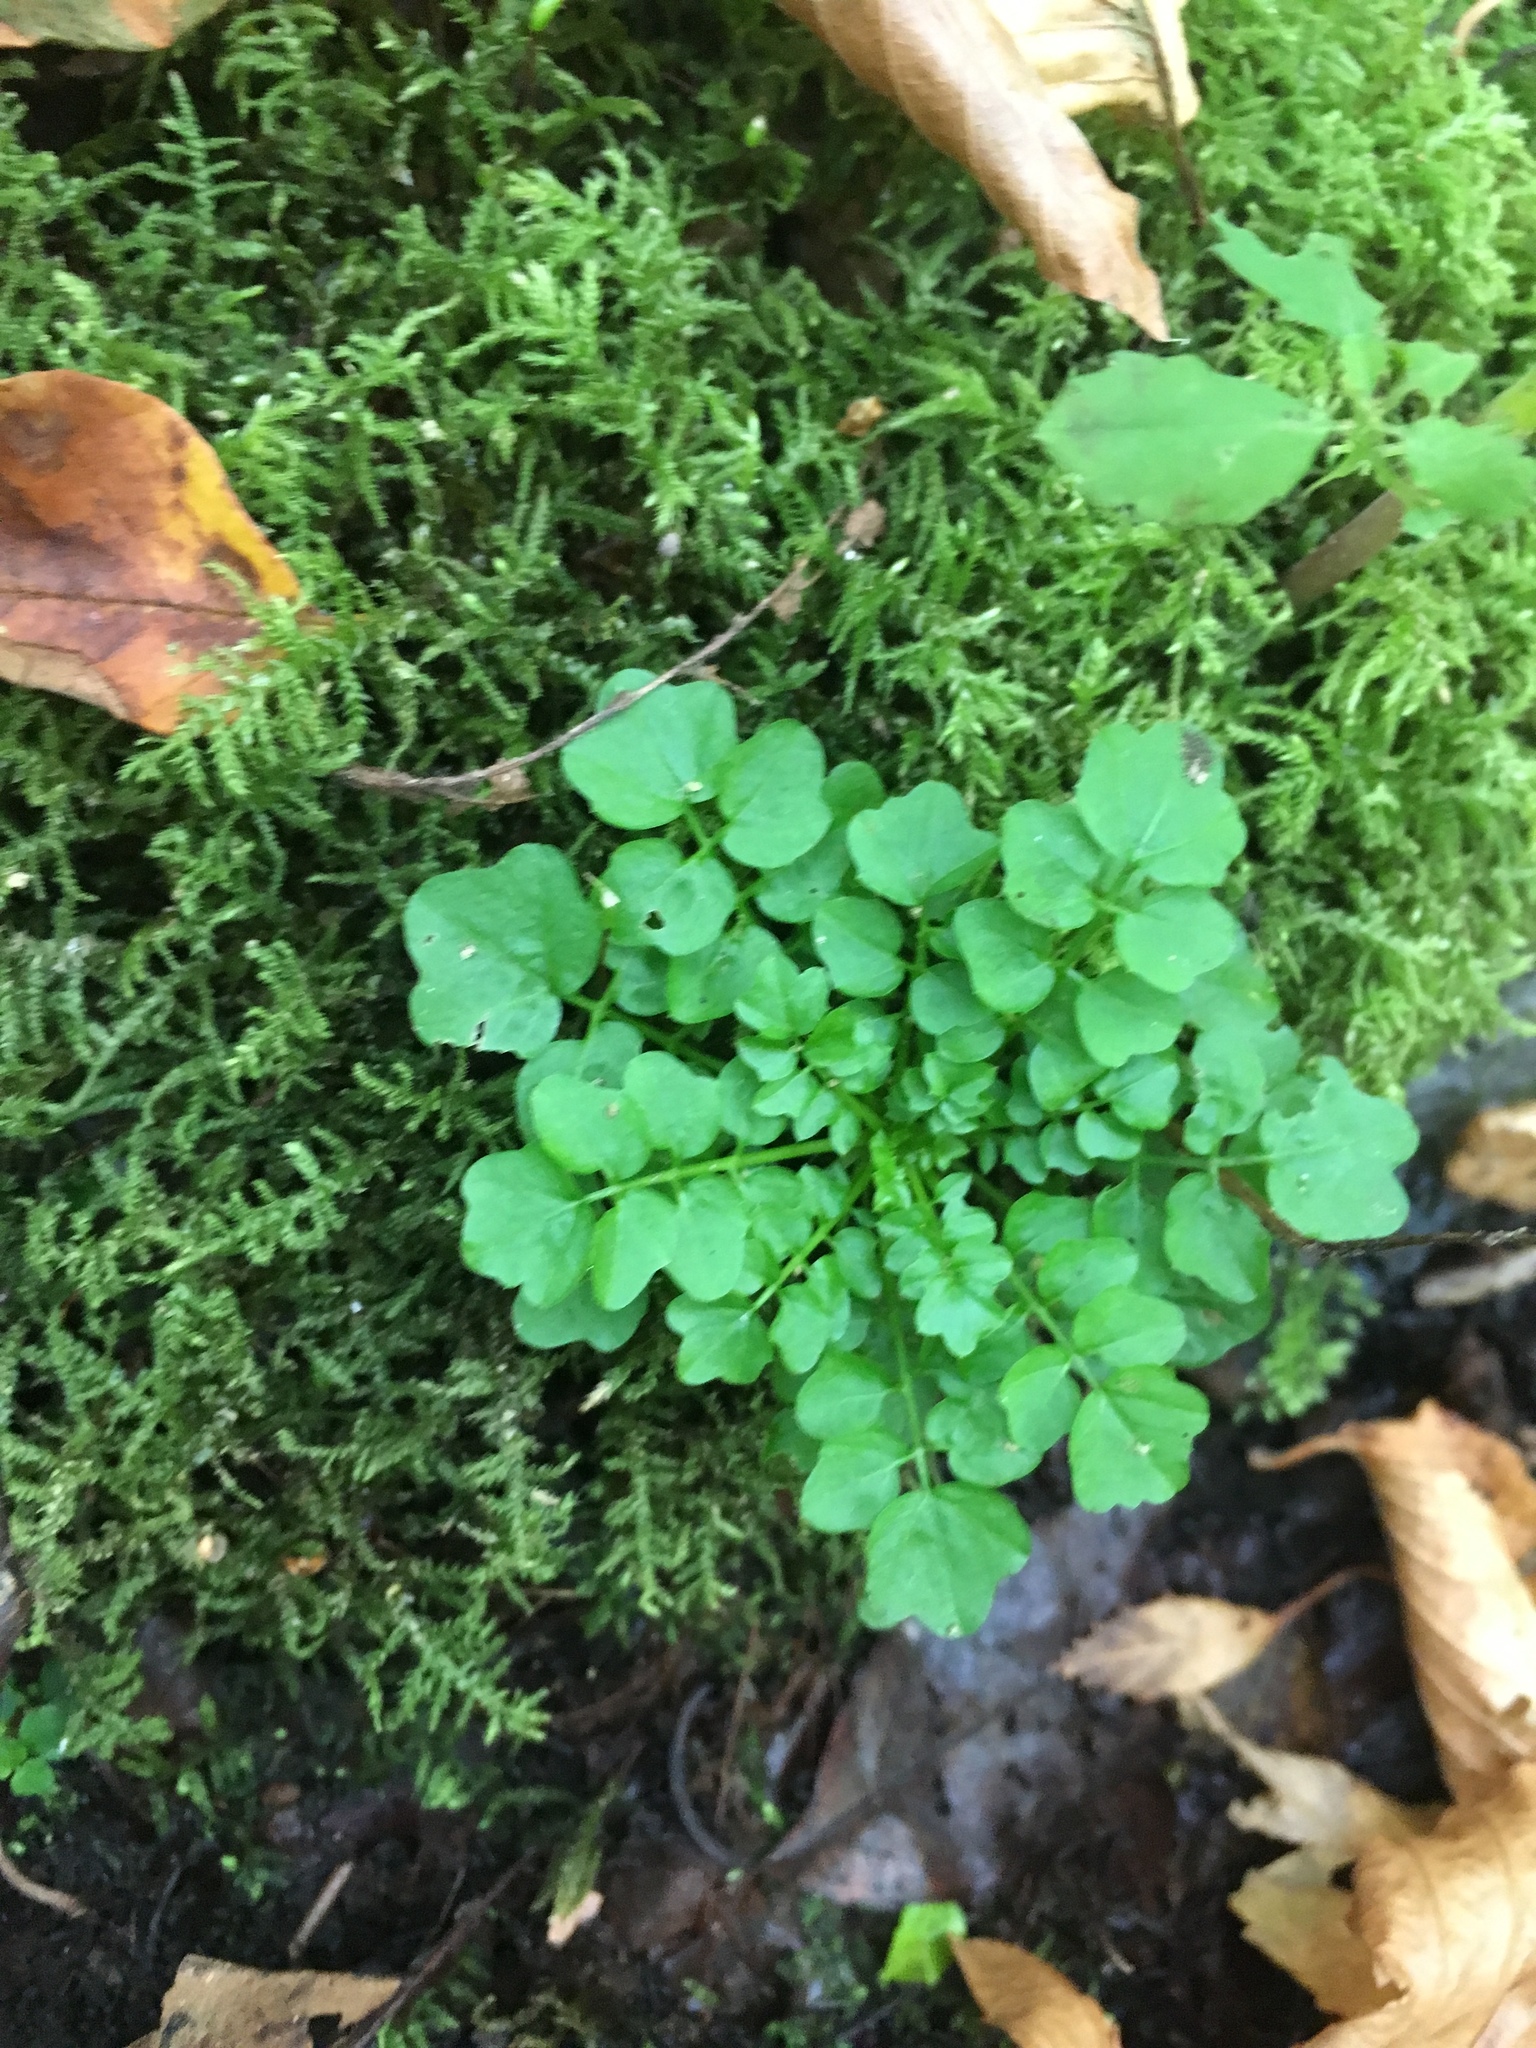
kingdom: Plantae
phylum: Tracheophyta
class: Magnoliopsida
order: Brassicales
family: Brassicaceae
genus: Cardamine
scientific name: Cardamine pensylvanica
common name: Pennsylvania bittercress
